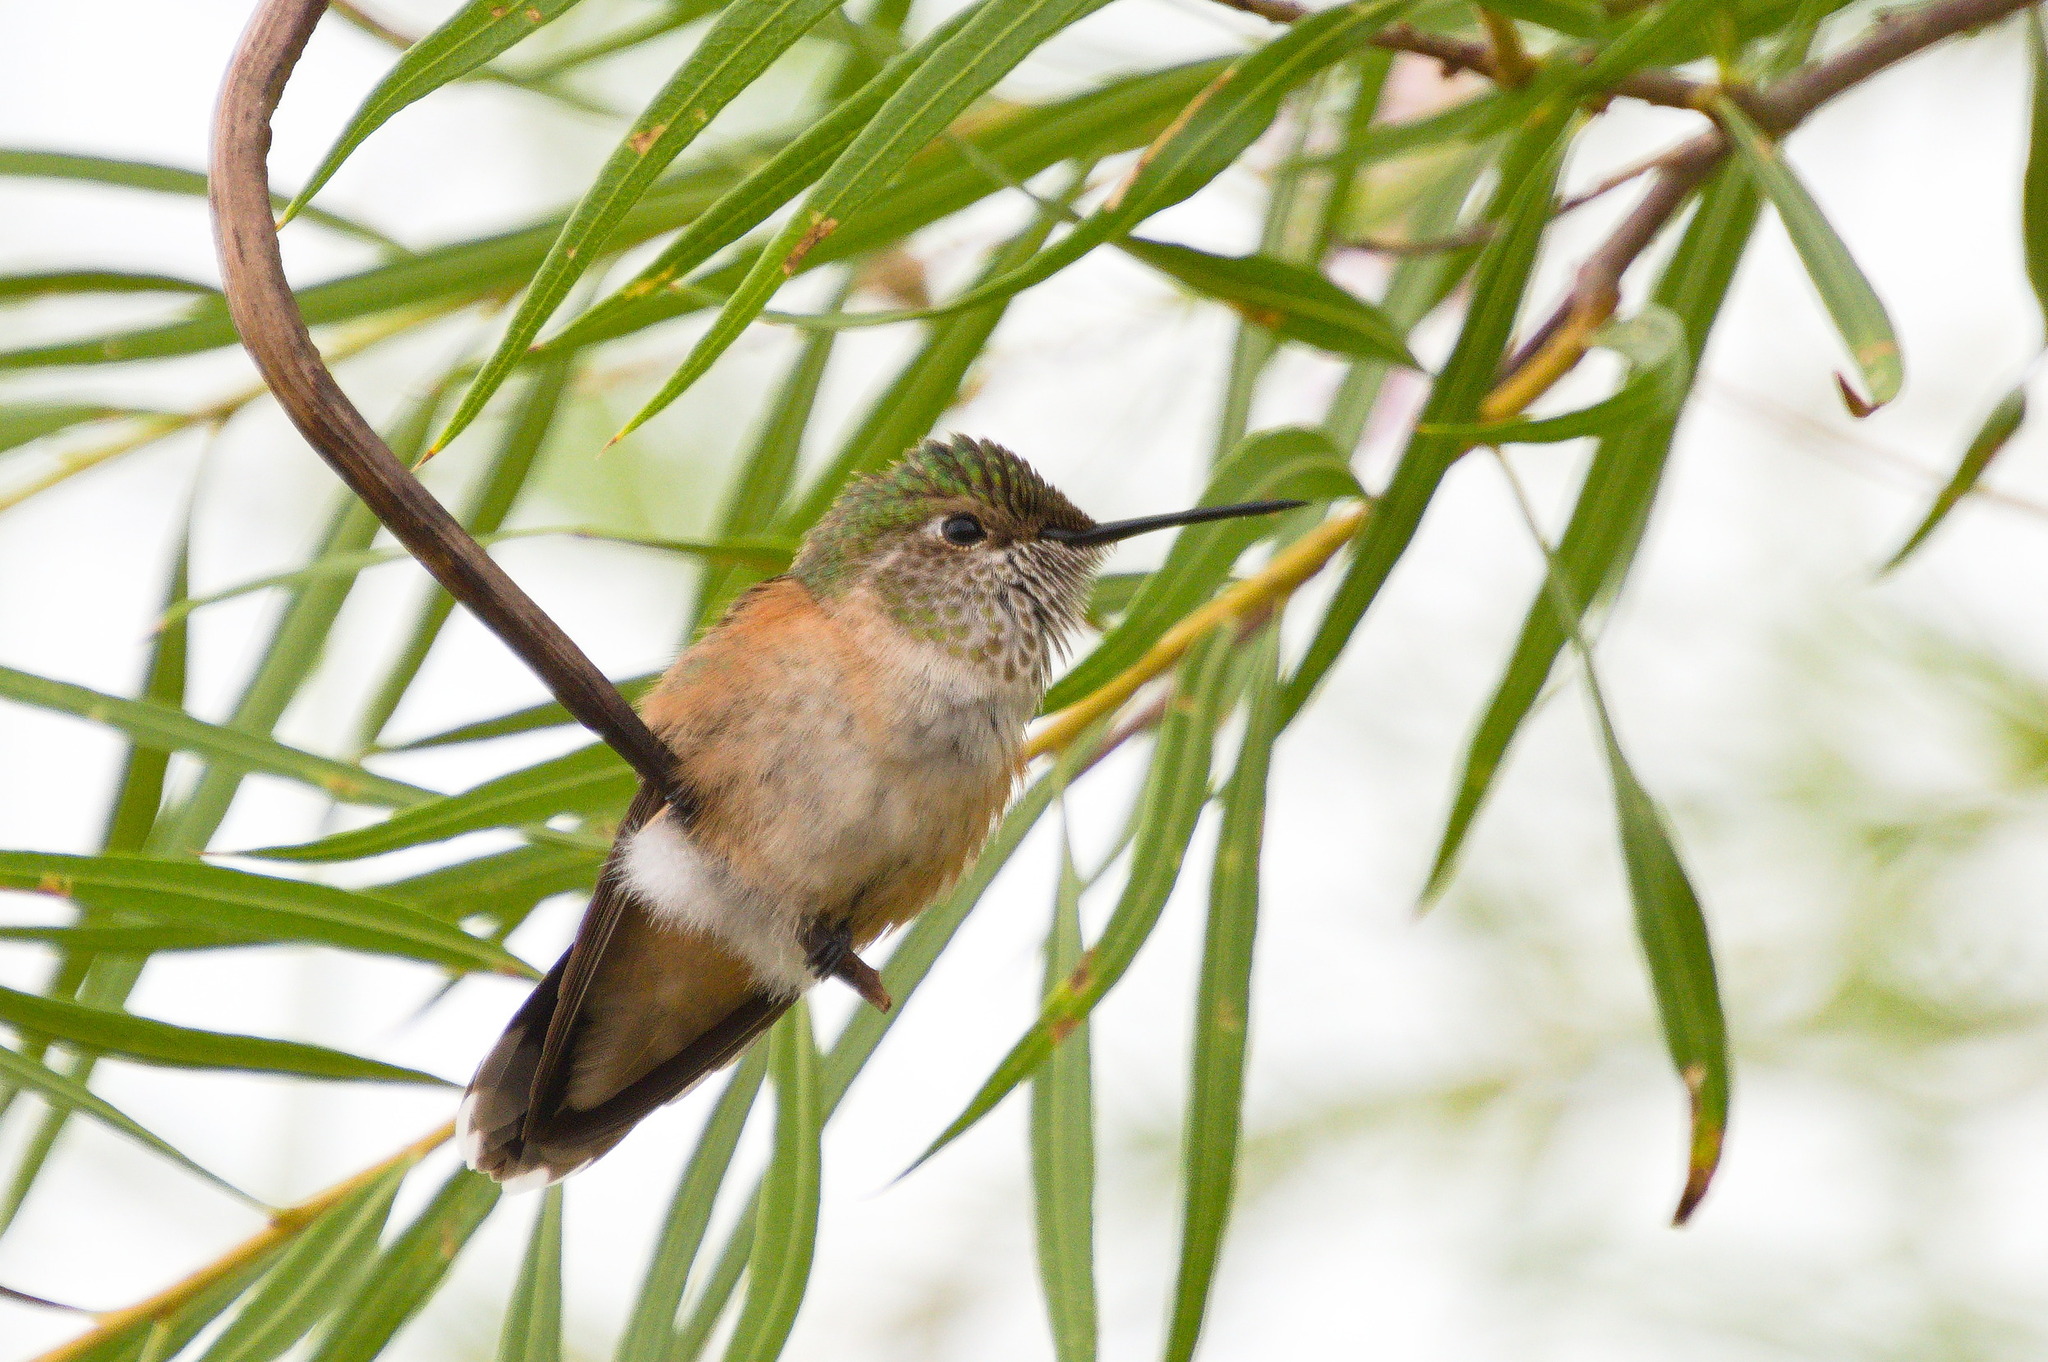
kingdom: Animalia
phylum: Chordata
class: Aves
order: Apodiformes
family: Trochilidae
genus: Selasphorus
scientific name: Selasphorus platycercus
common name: Broad-tailed hummingbird
